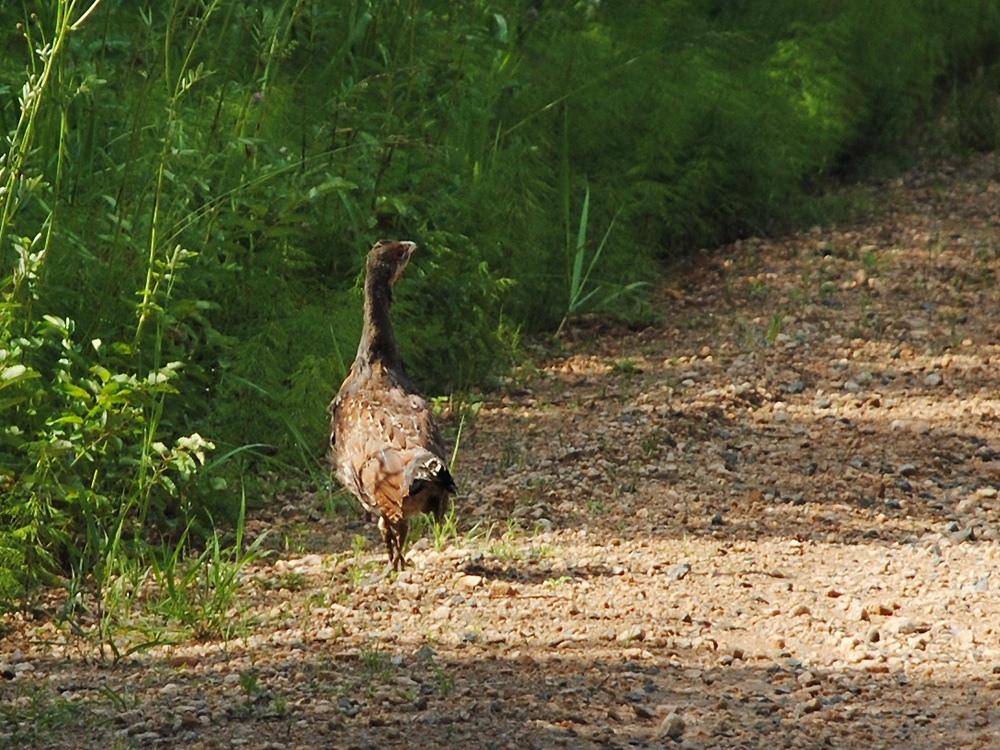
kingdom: Animalia
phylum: Chordata
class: Aves
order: Galliformes
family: Phasianidae
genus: Tetrao
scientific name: Tetrao urogallus
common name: Western capercaillie
